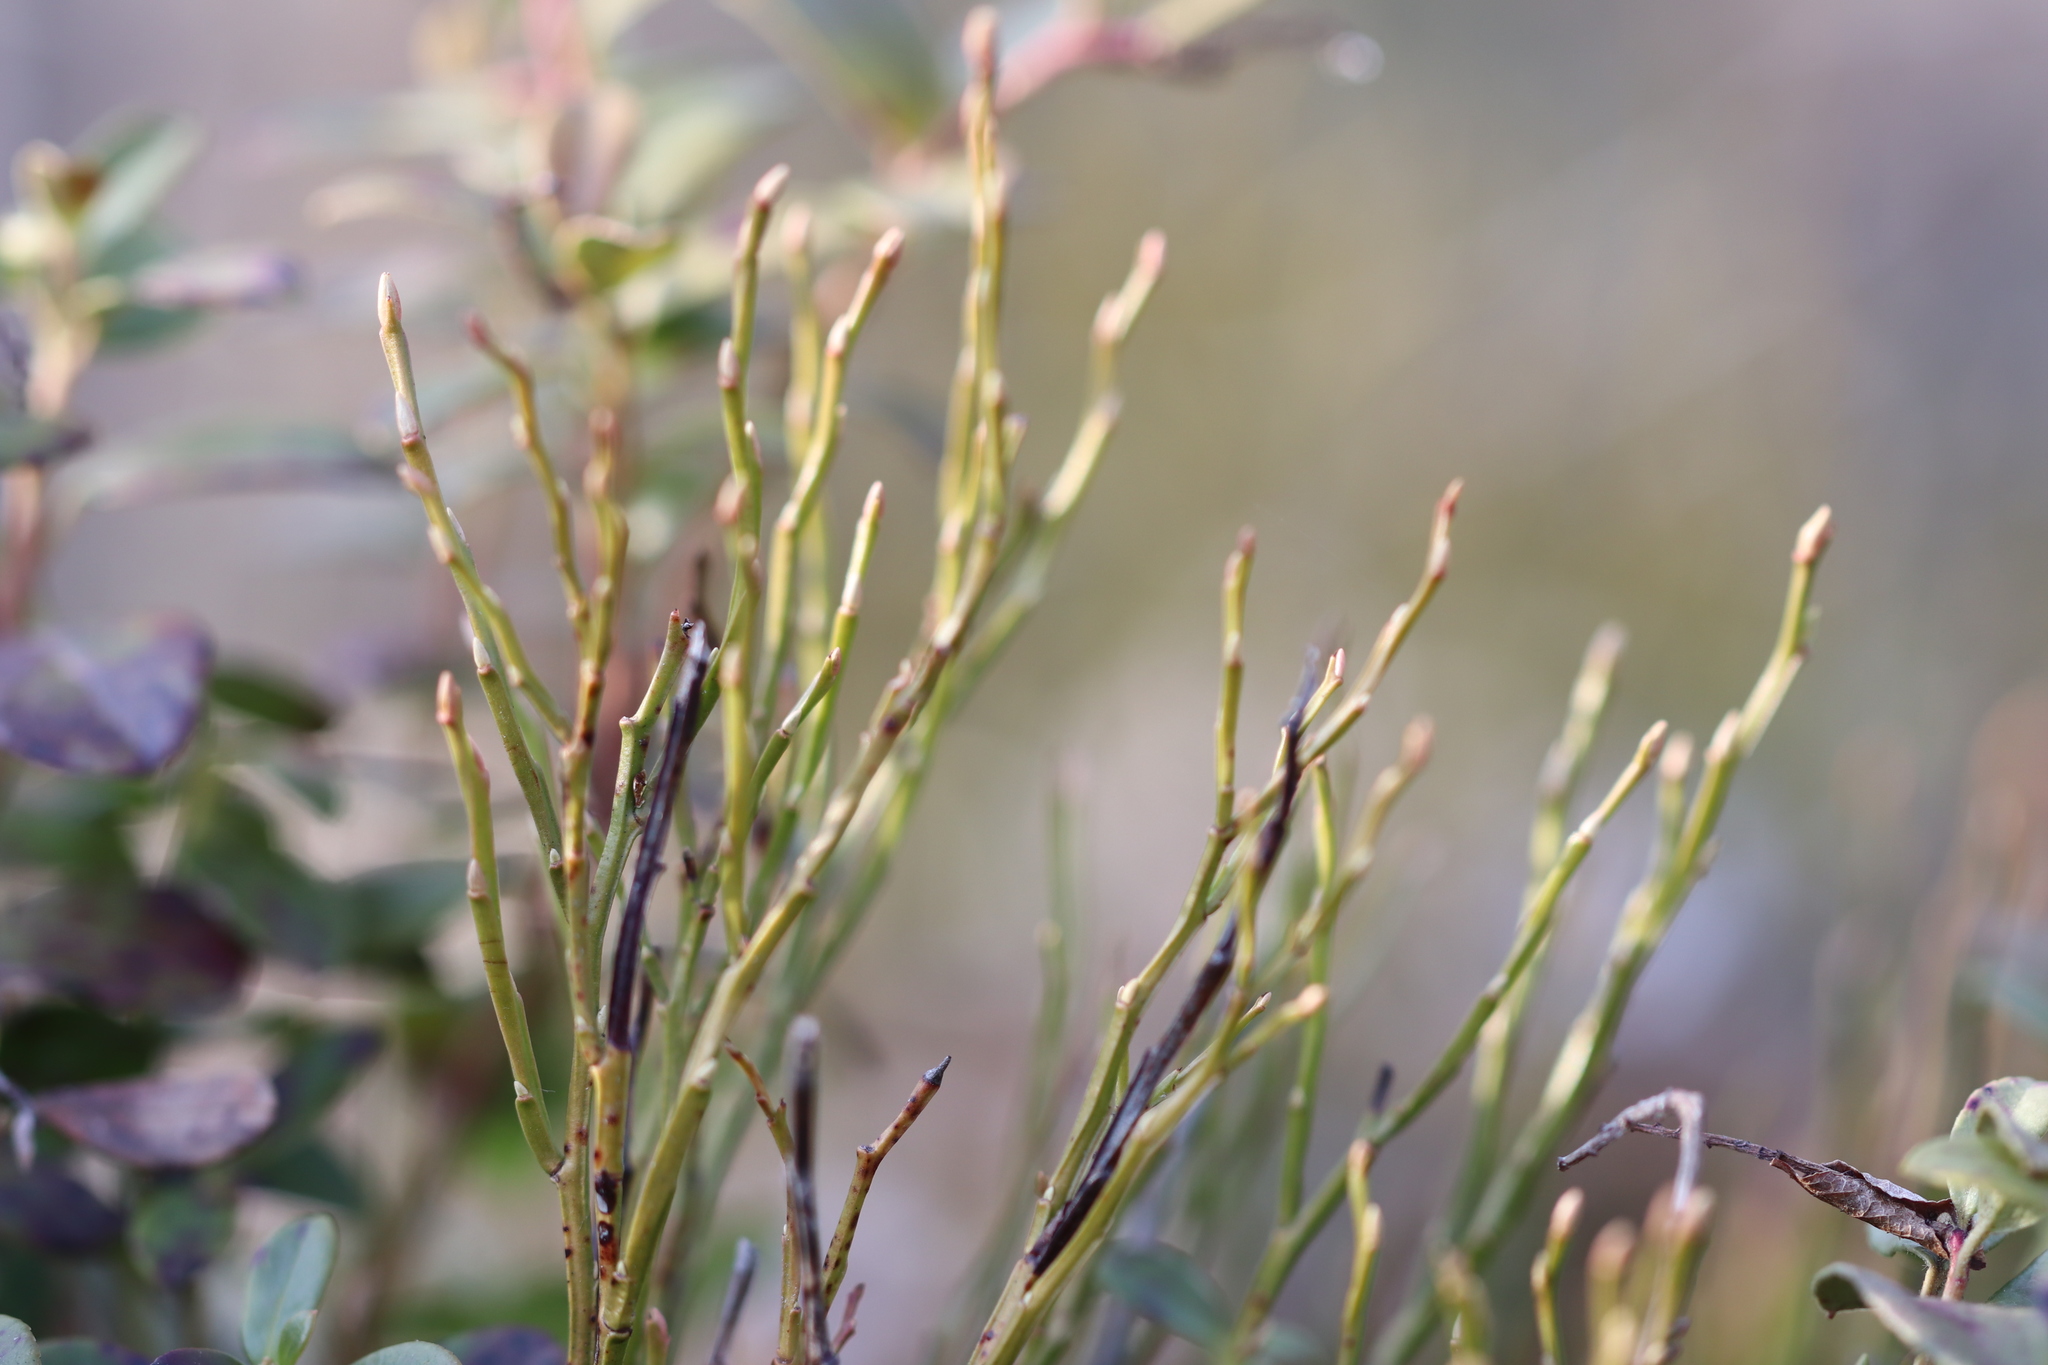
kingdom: Plantae
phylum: Tracheophyta
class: Magnoliopsida
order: Ericales
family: Ericaceae
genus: Vaccinium
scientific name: Vaccinium myrtillus
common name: Bilberry
